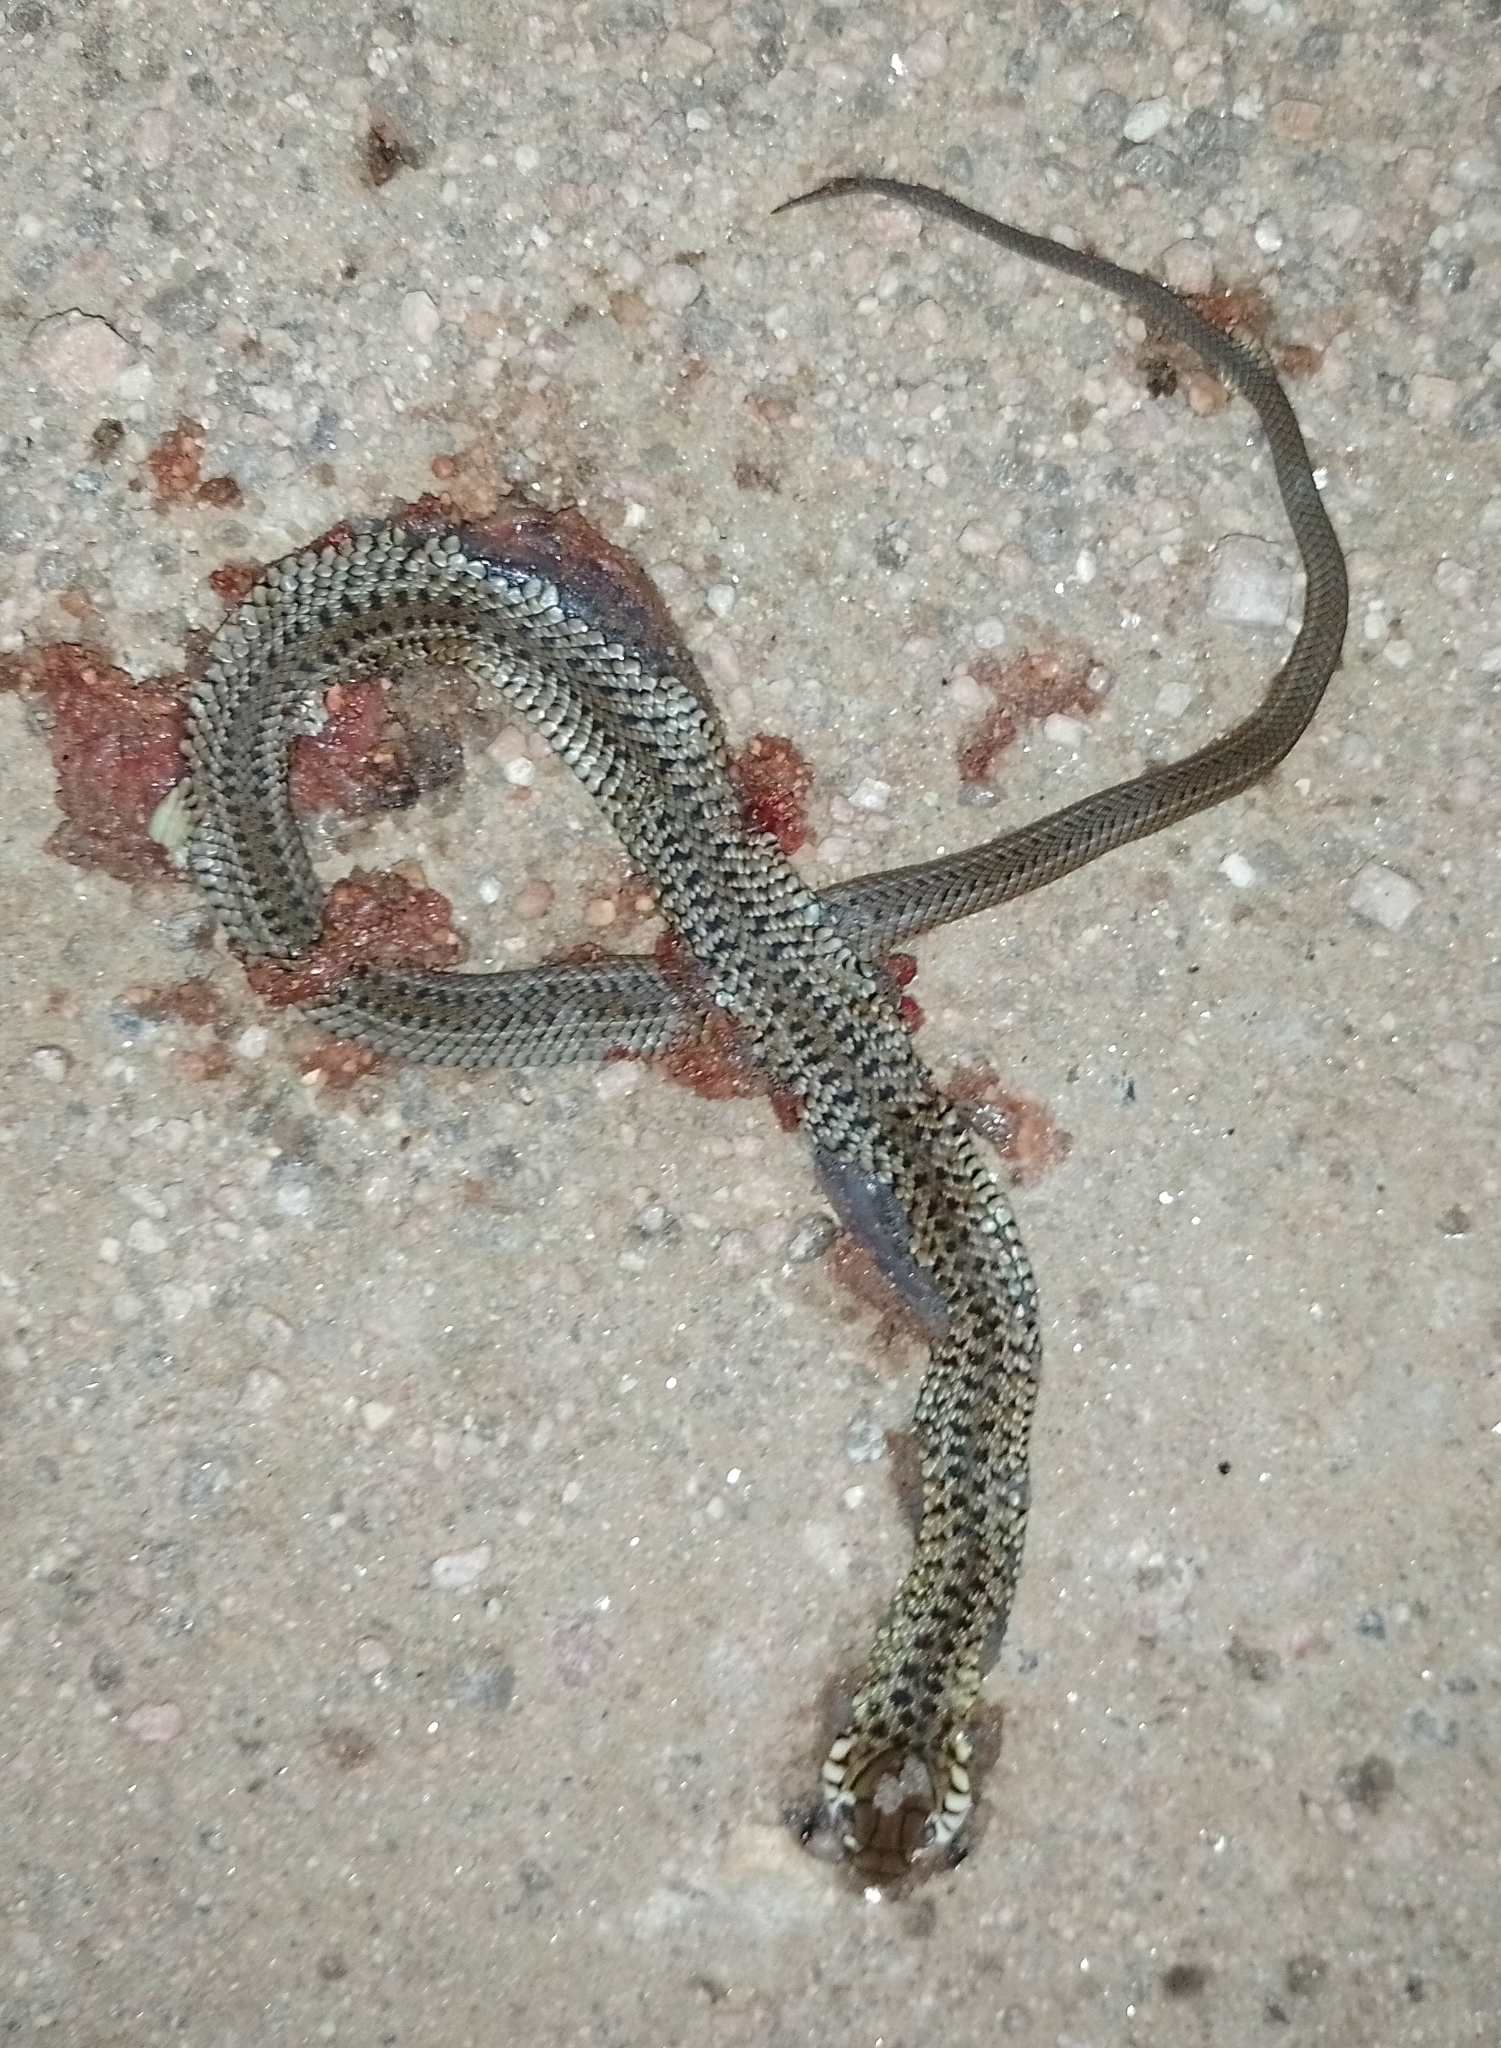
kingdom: Animalia
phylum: Chordata
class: Squamata
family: Colubridae
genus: Philodryas
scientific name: Philodryas patagoniensis
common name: Patagonia green racer
